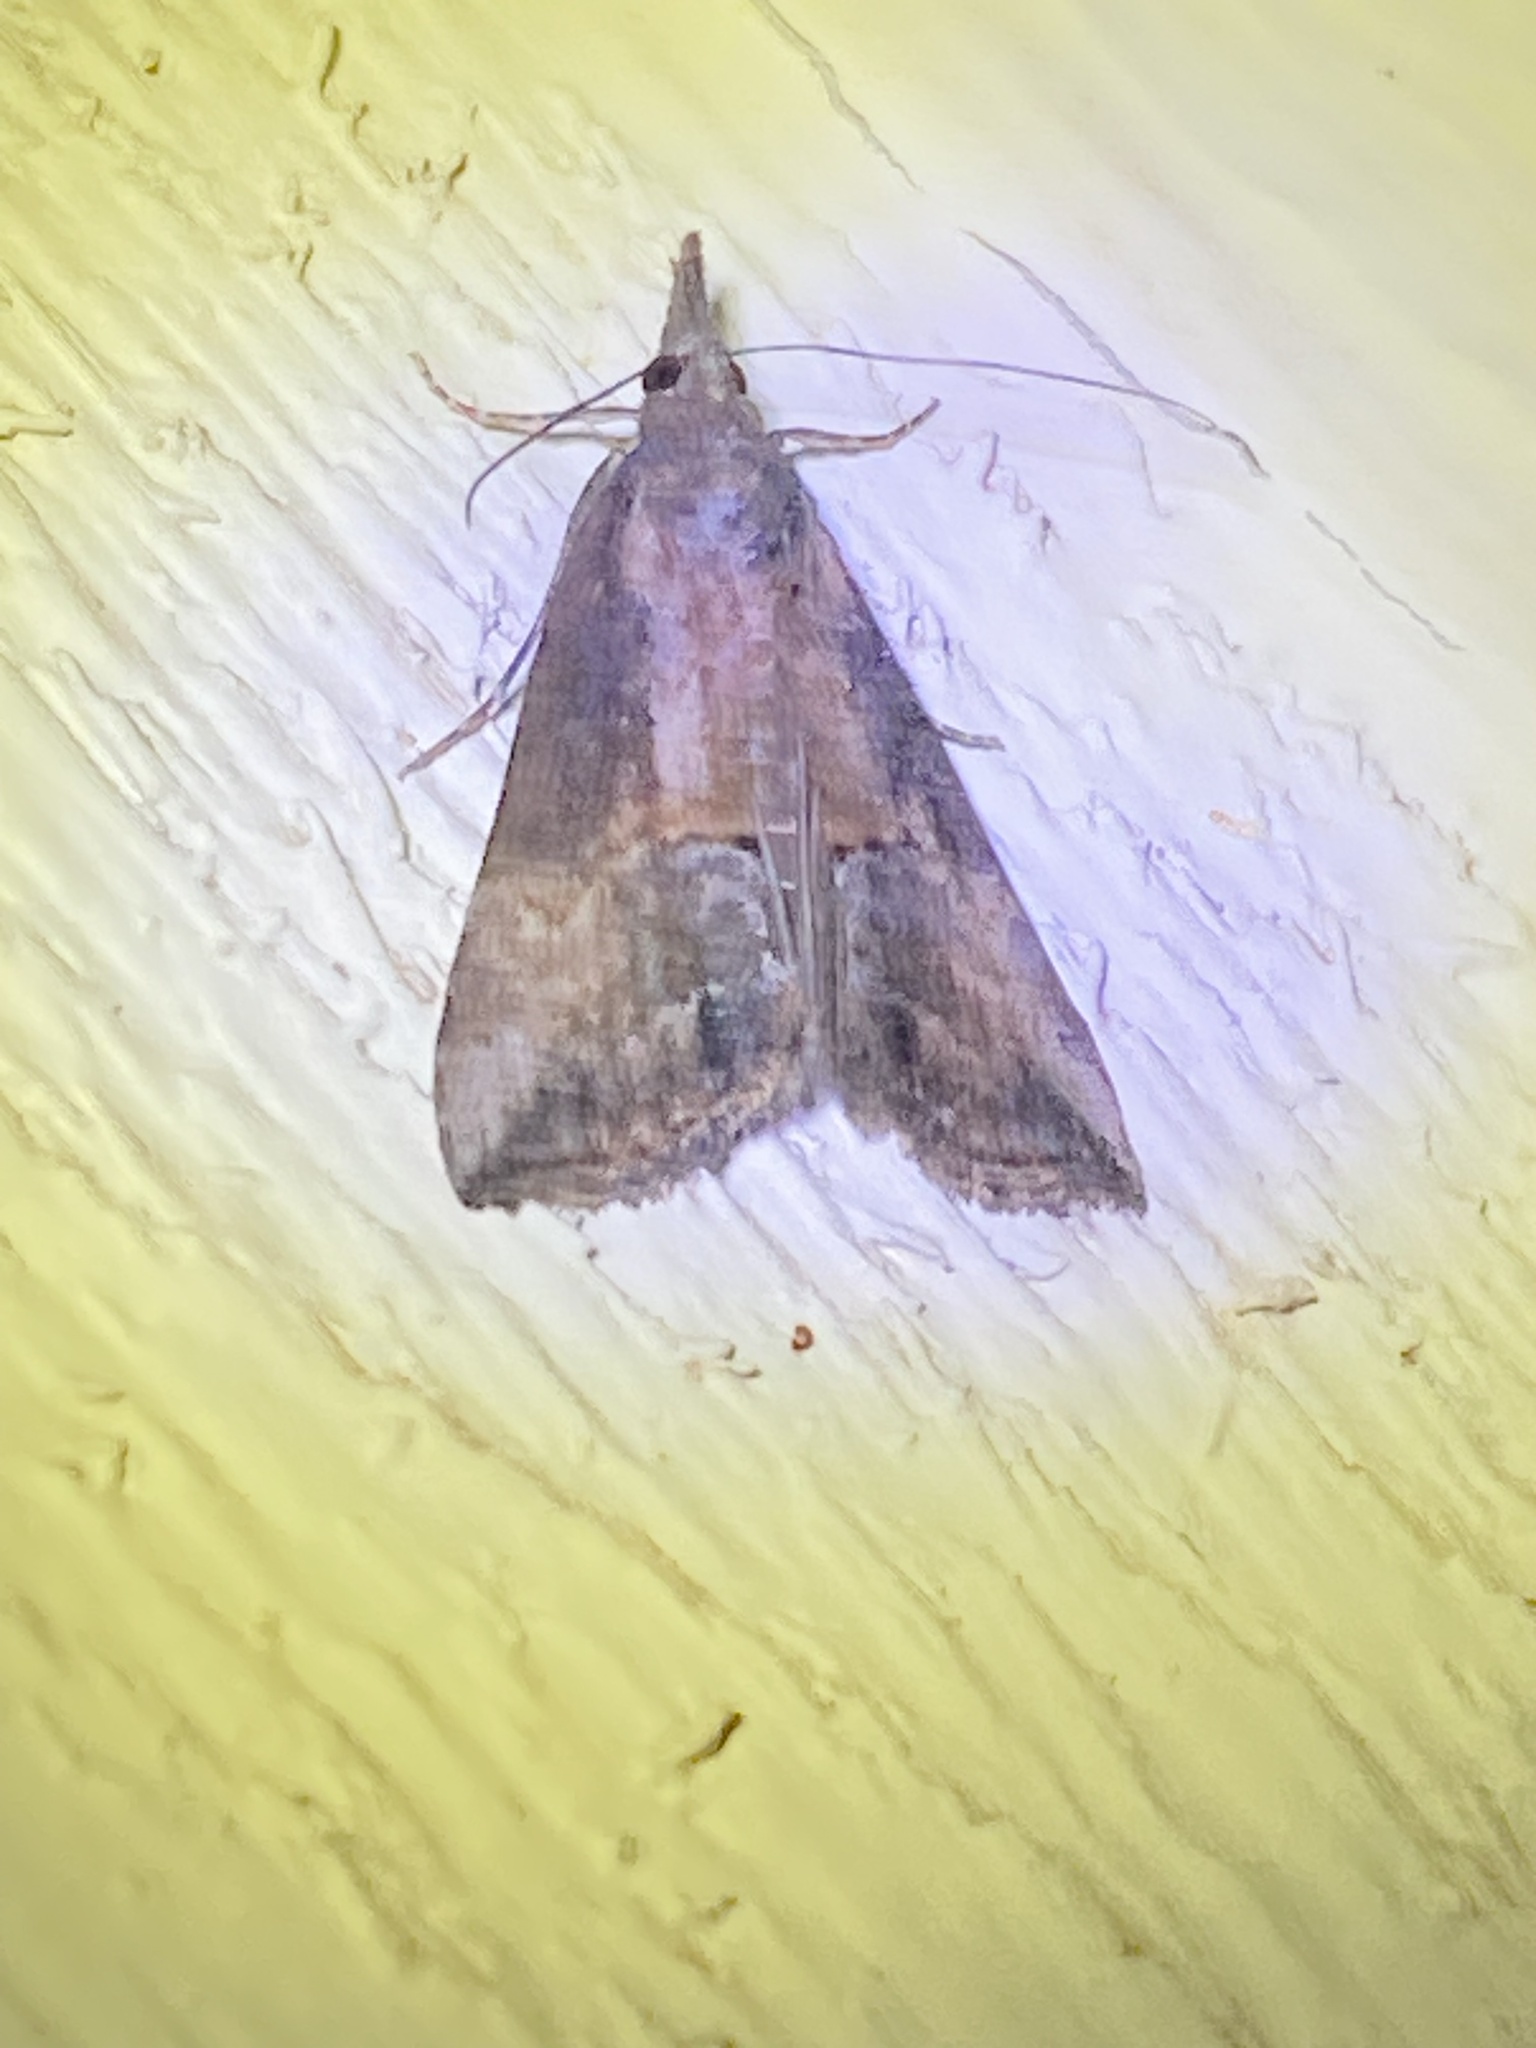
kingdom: Animalia
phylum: Arthropoda
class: Insecta
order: Lepidoptera
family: Erebidae
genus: Hypena
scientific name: Hypena scabra
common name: Green cloverworm
